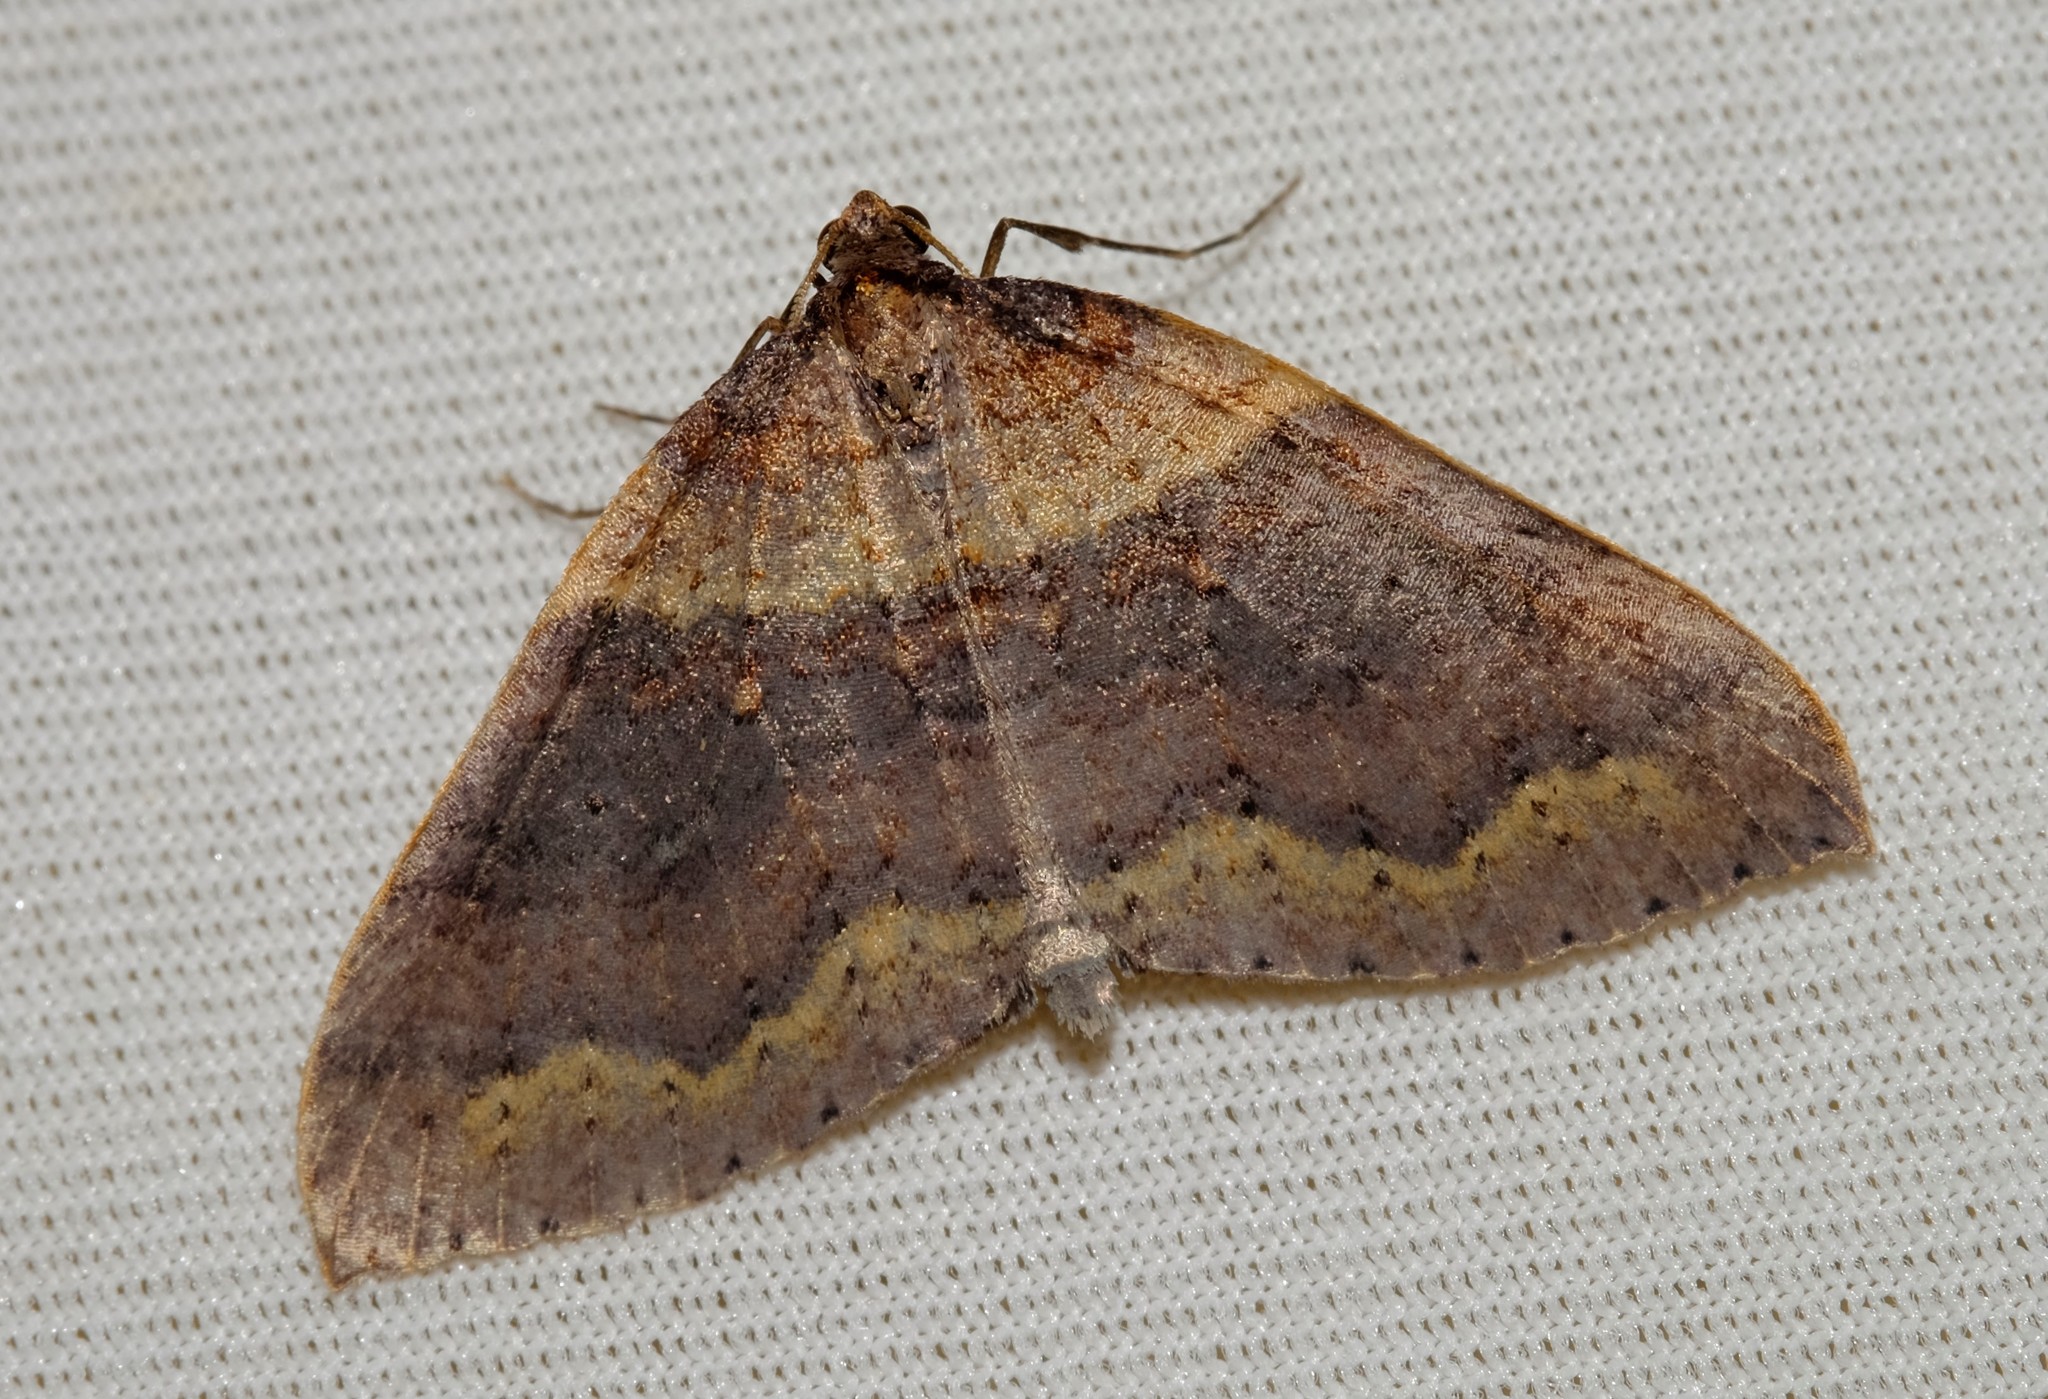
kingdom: Animalia
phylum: Arthropoda
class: Insecta
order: Lepidoptera
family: Geometridae
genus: Larentia
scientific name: Larentia apotoma
